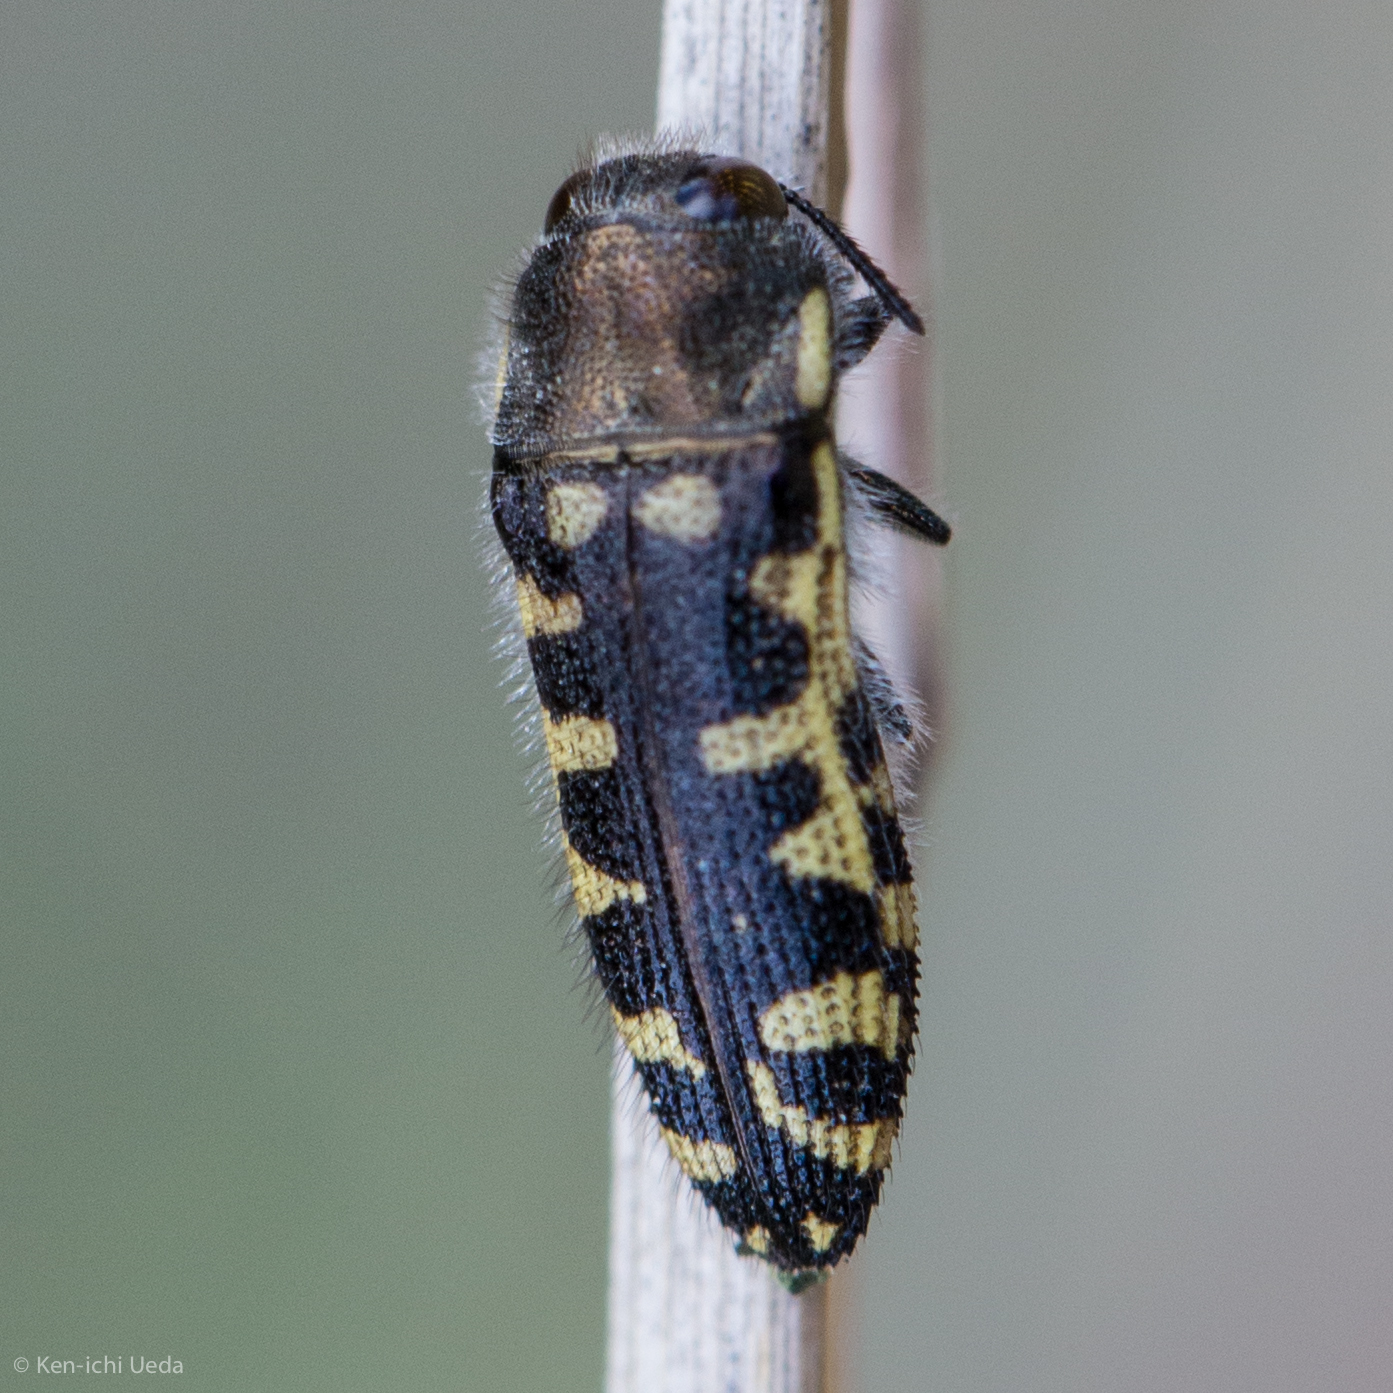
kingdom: Animalia
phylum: Arthropoda
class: Insecta
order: Coleoptera
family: Buprestidae
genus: Acmaeodera
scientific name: Acmaeodera solitaria
